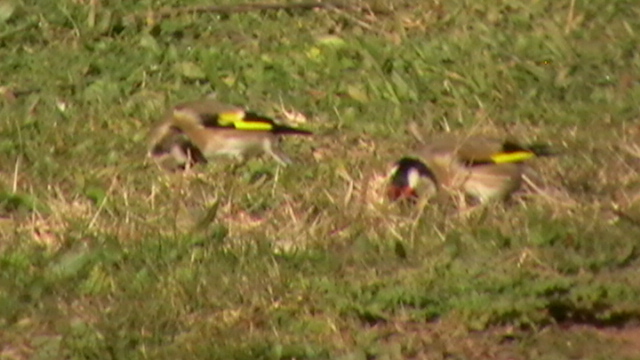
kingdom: Animalia
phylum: Chordata
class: Aves
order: Passeriformes
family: Fringillidae
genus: Carduelis
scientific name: Carduelis carduelis
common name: European goldfinch
